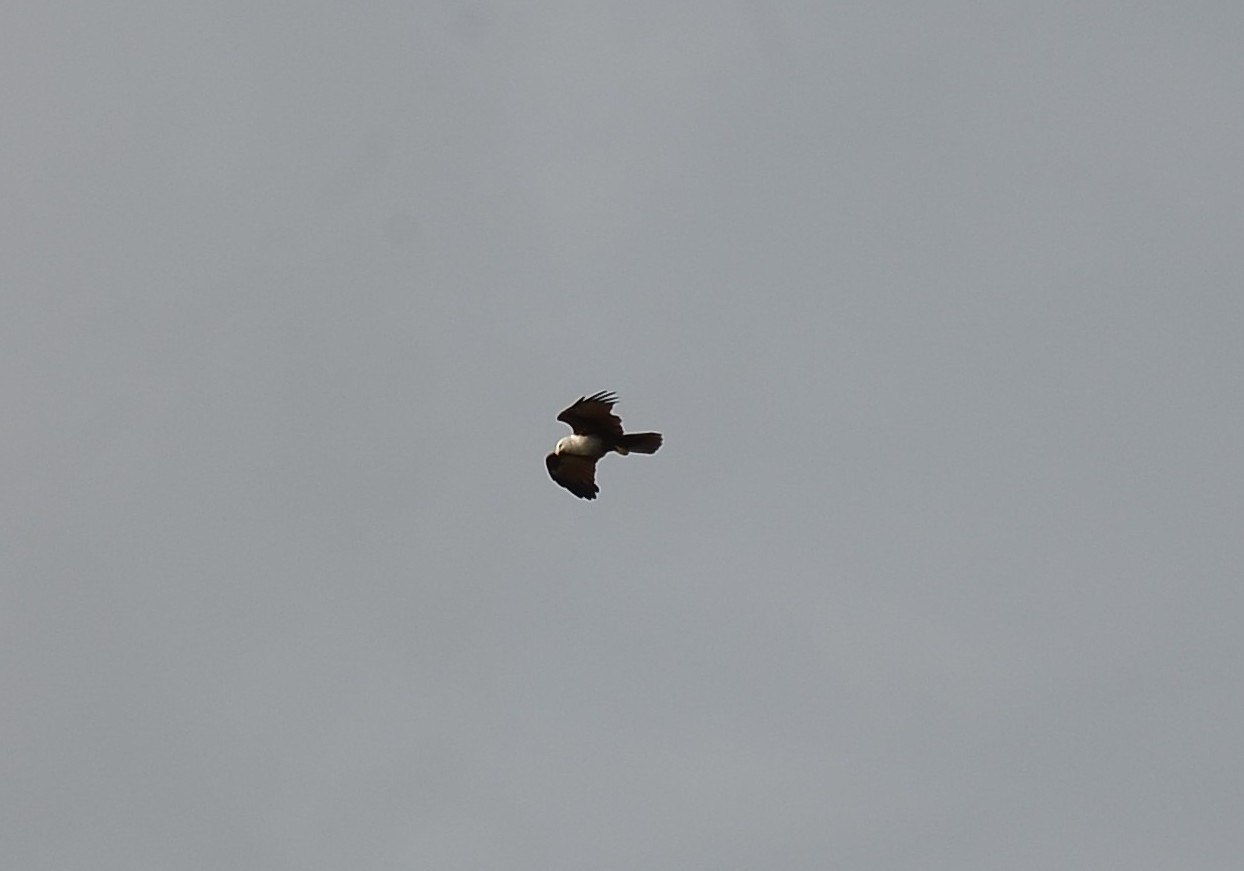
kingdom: Animalia
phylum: Chordata
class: Aves
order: Accipitriformes
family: Accipitridae
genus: Haliastur
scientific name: Haliastur indus
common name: Brahminy kite
